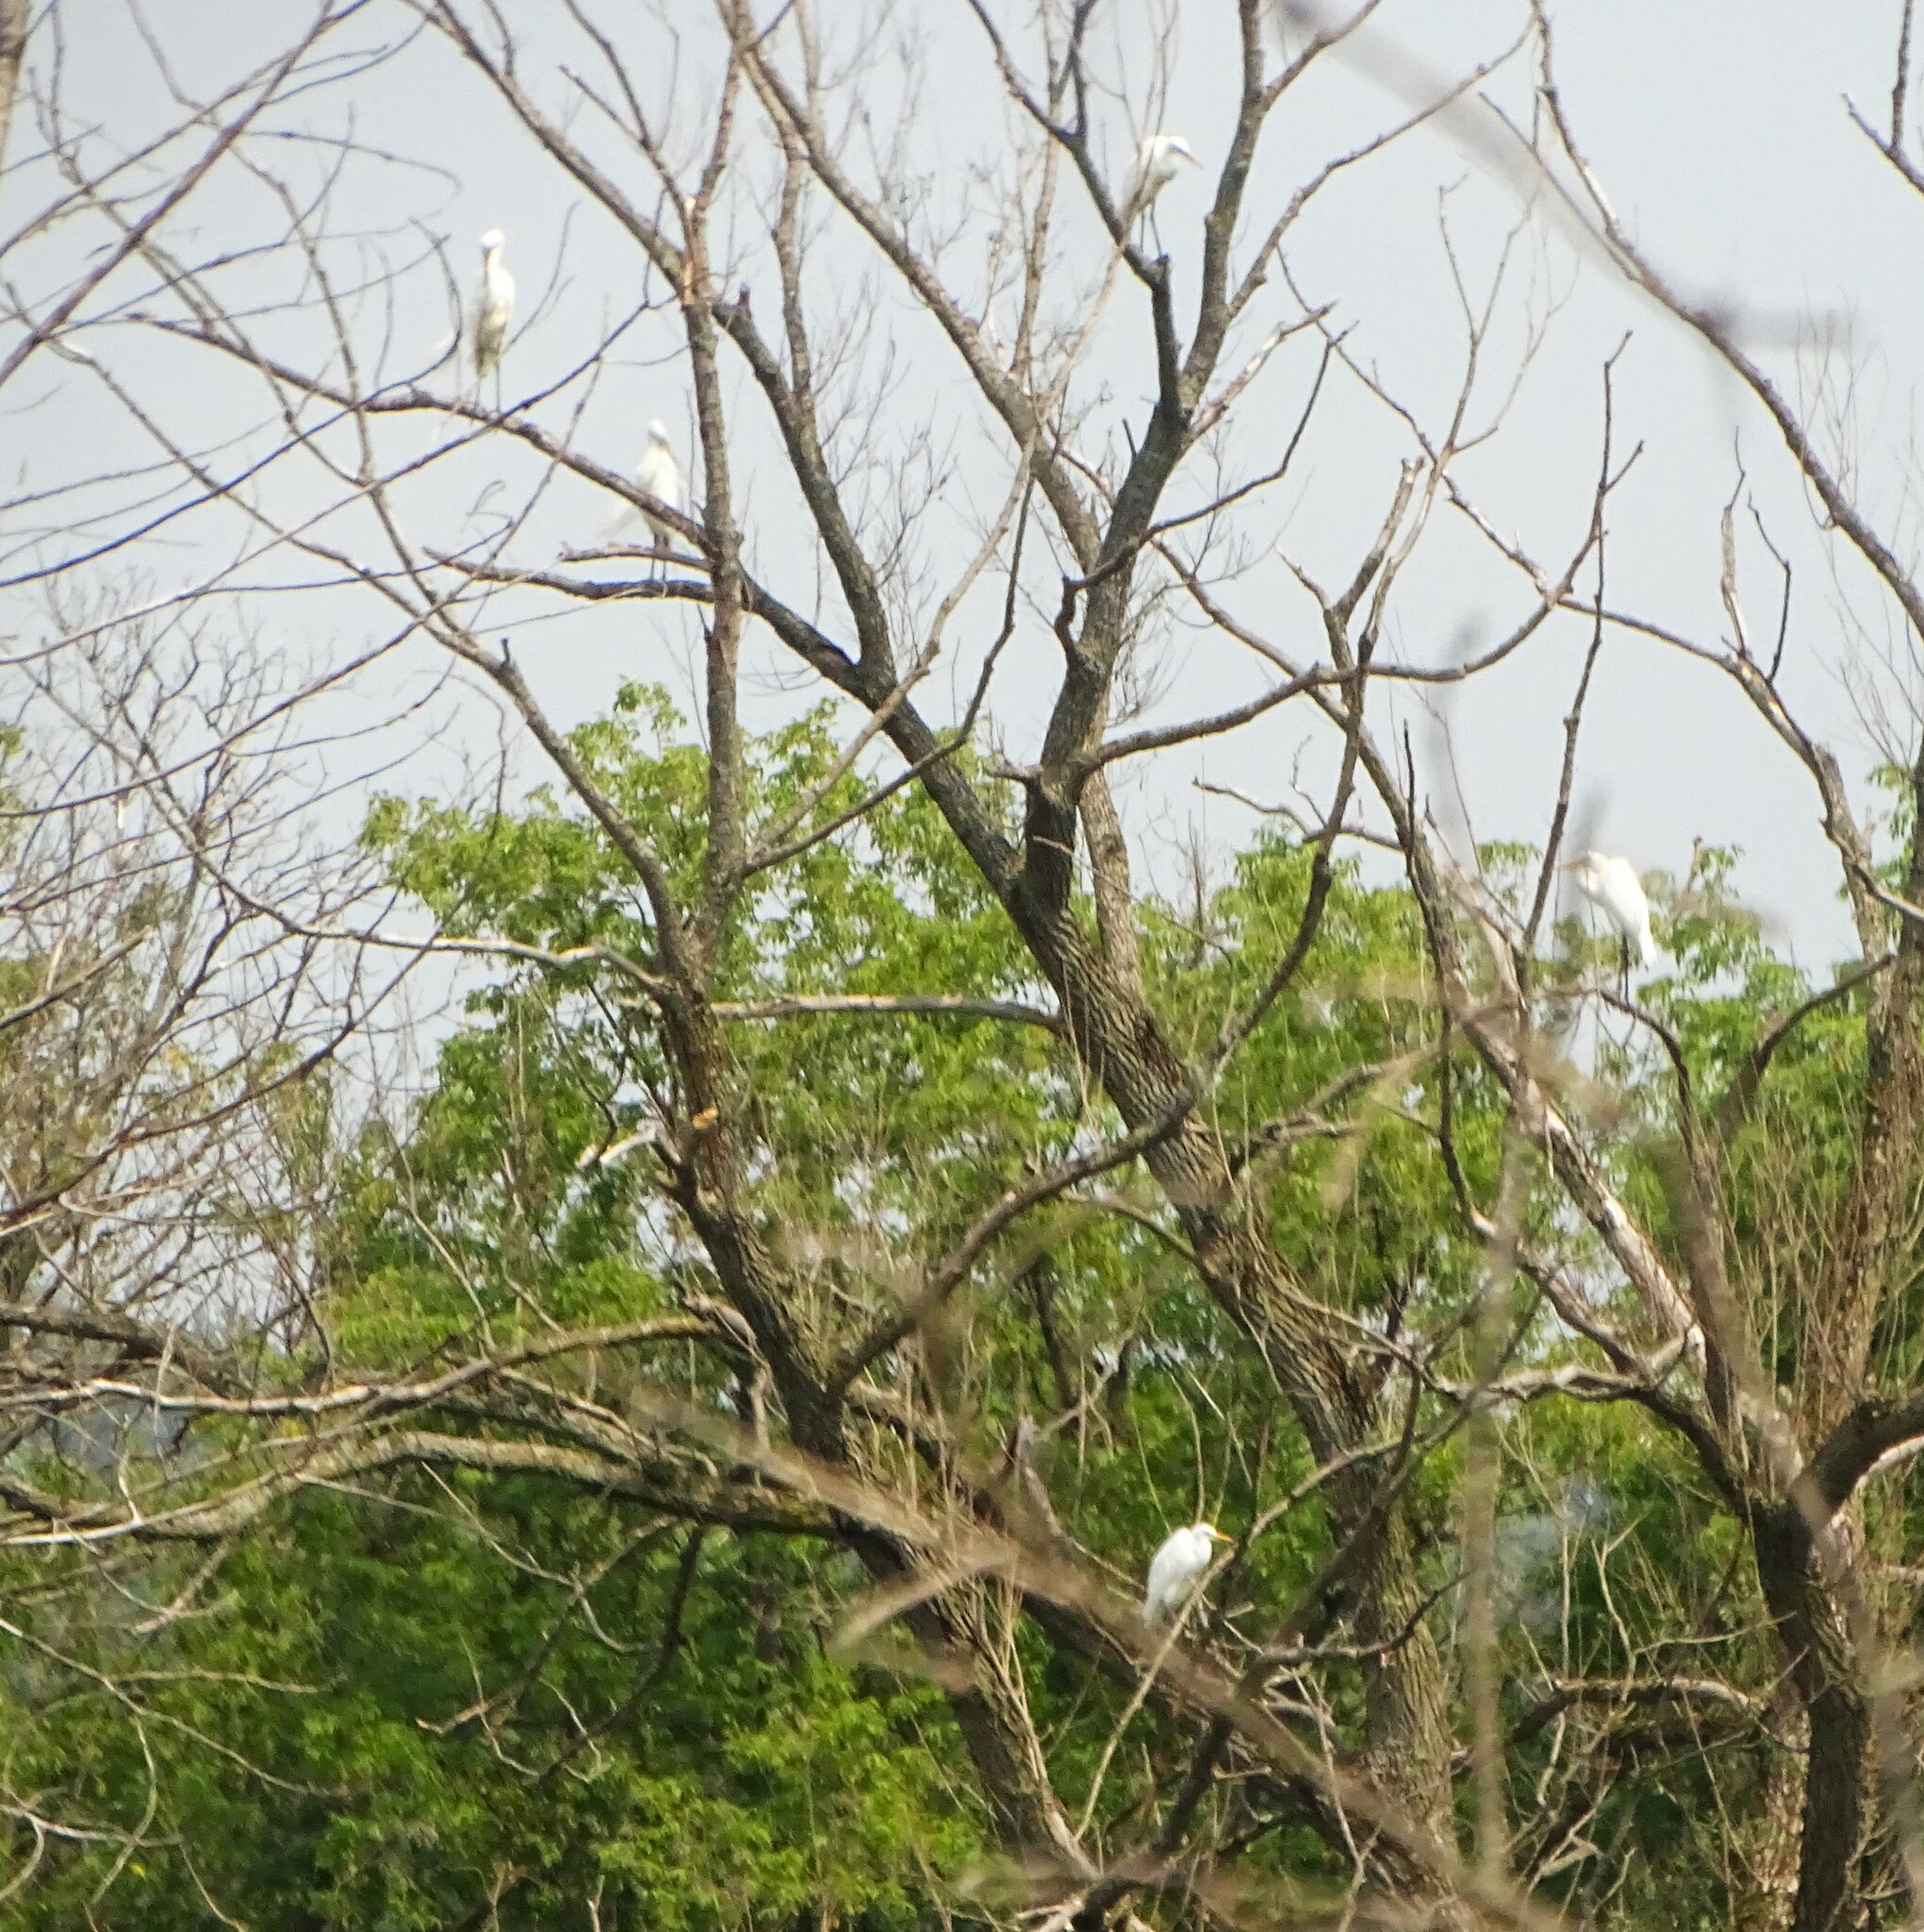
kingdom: Animalia
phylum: Chordata
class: Aves
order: Pelecaniformes
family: Ardeidae
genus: Ardea
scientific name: Ardea alba
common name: Great egret
